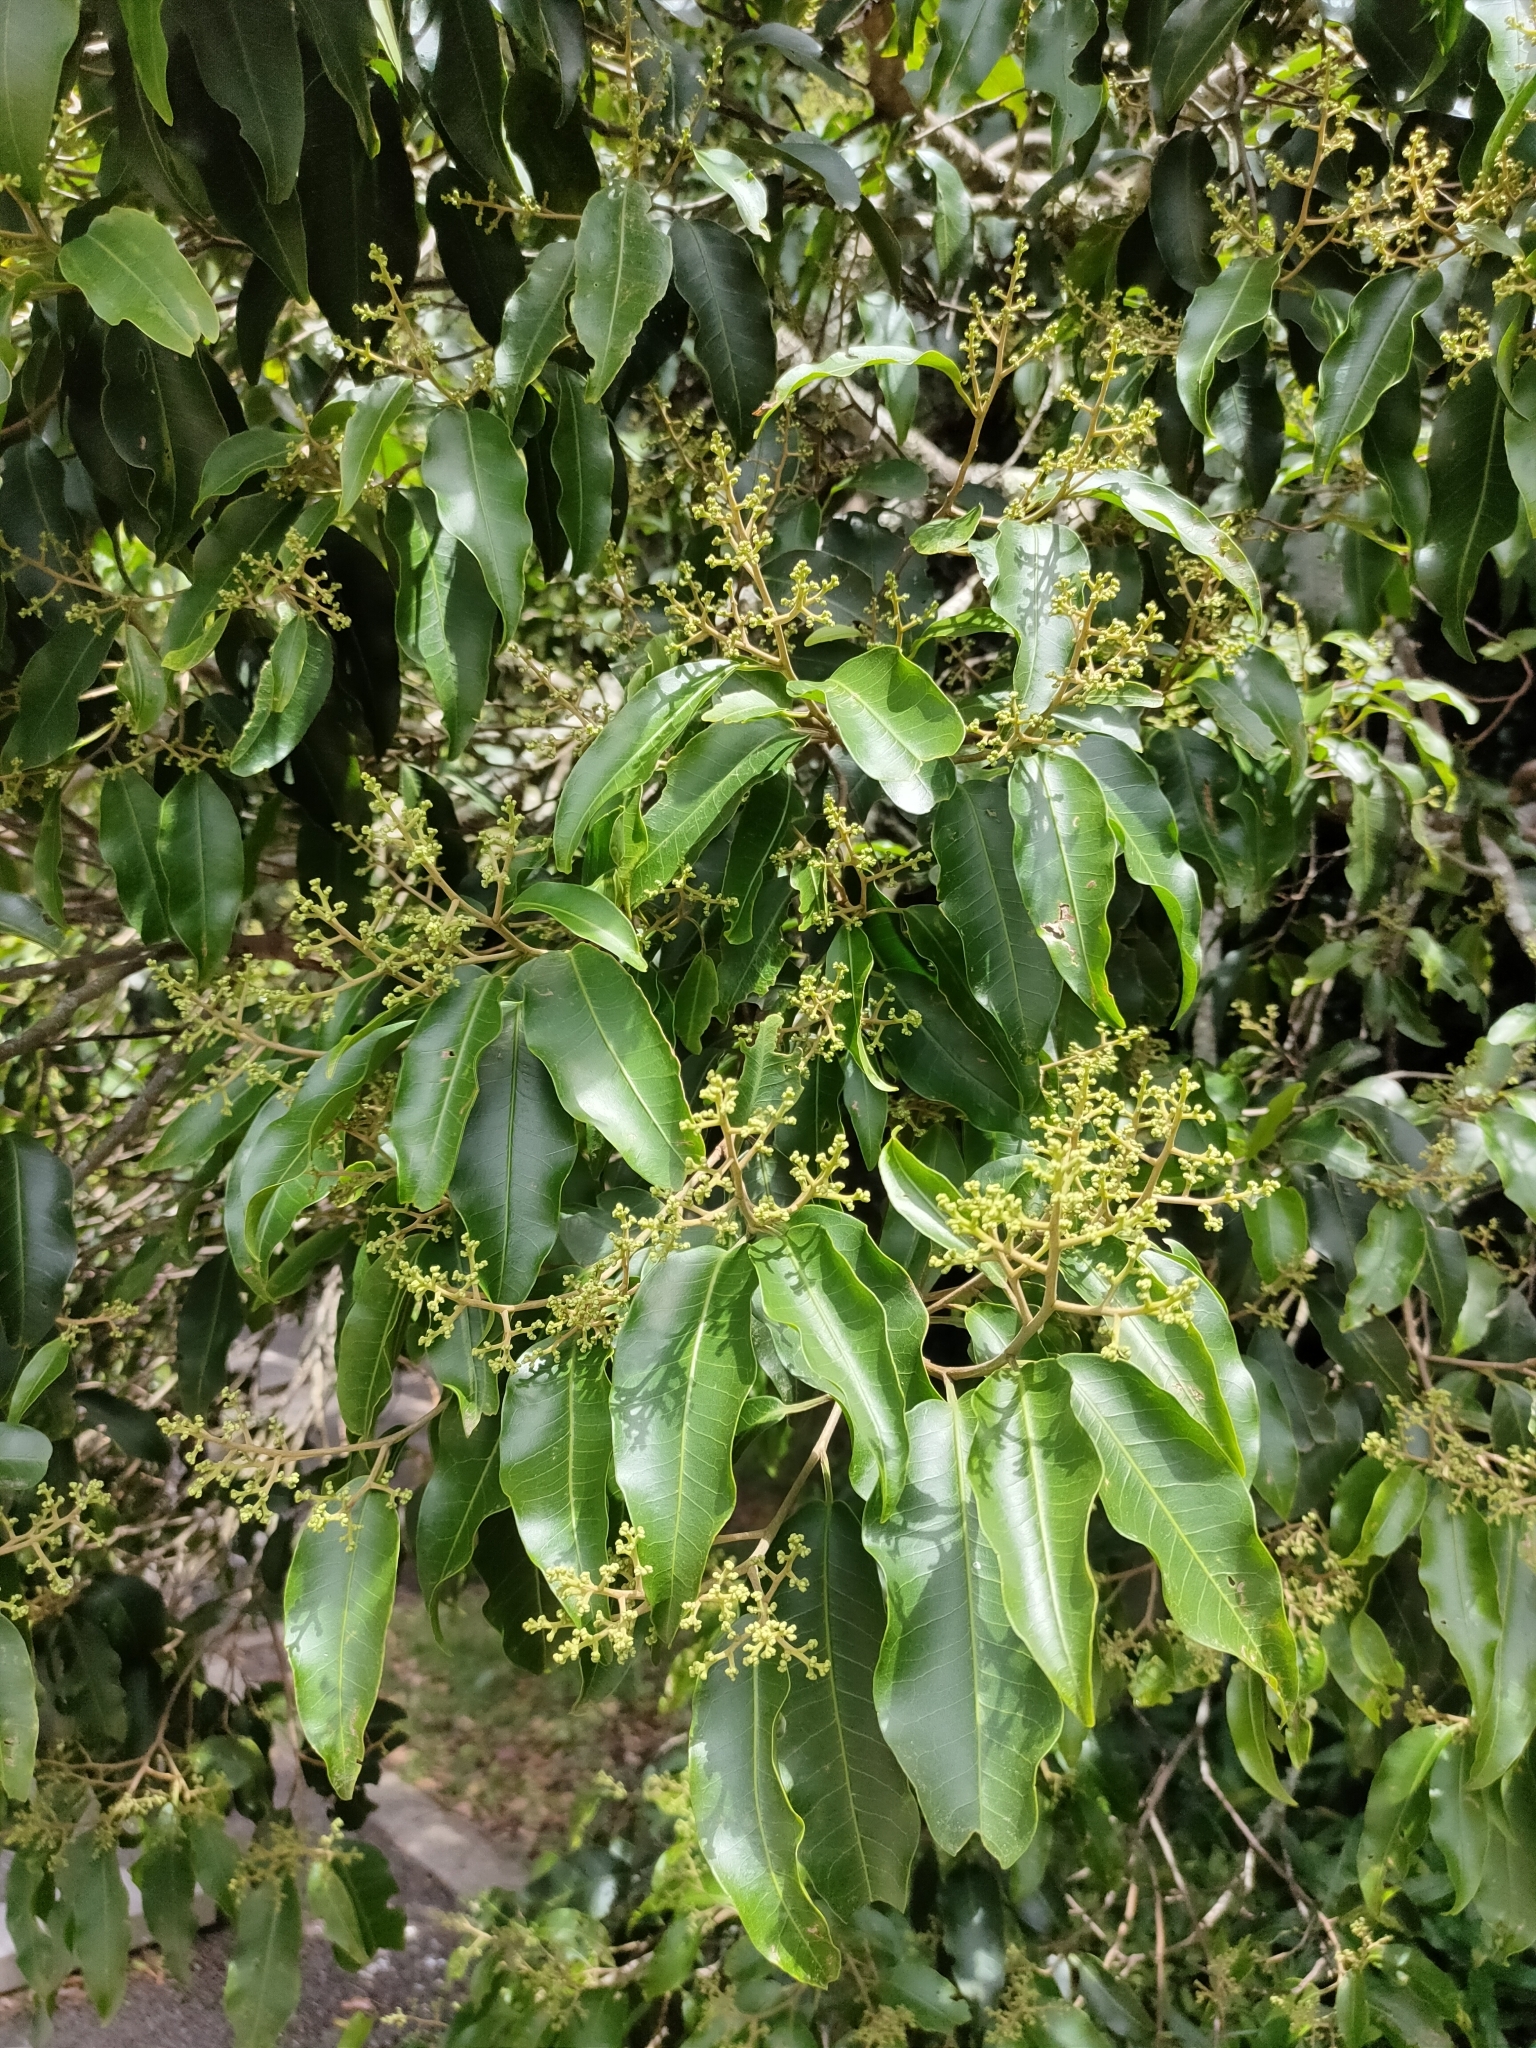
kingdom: Plantae
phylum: Tracheophyta
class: Magnoliopsida
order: Sapindales
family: Rutaceae
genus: Geijera
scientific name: Geijera salicifolia
